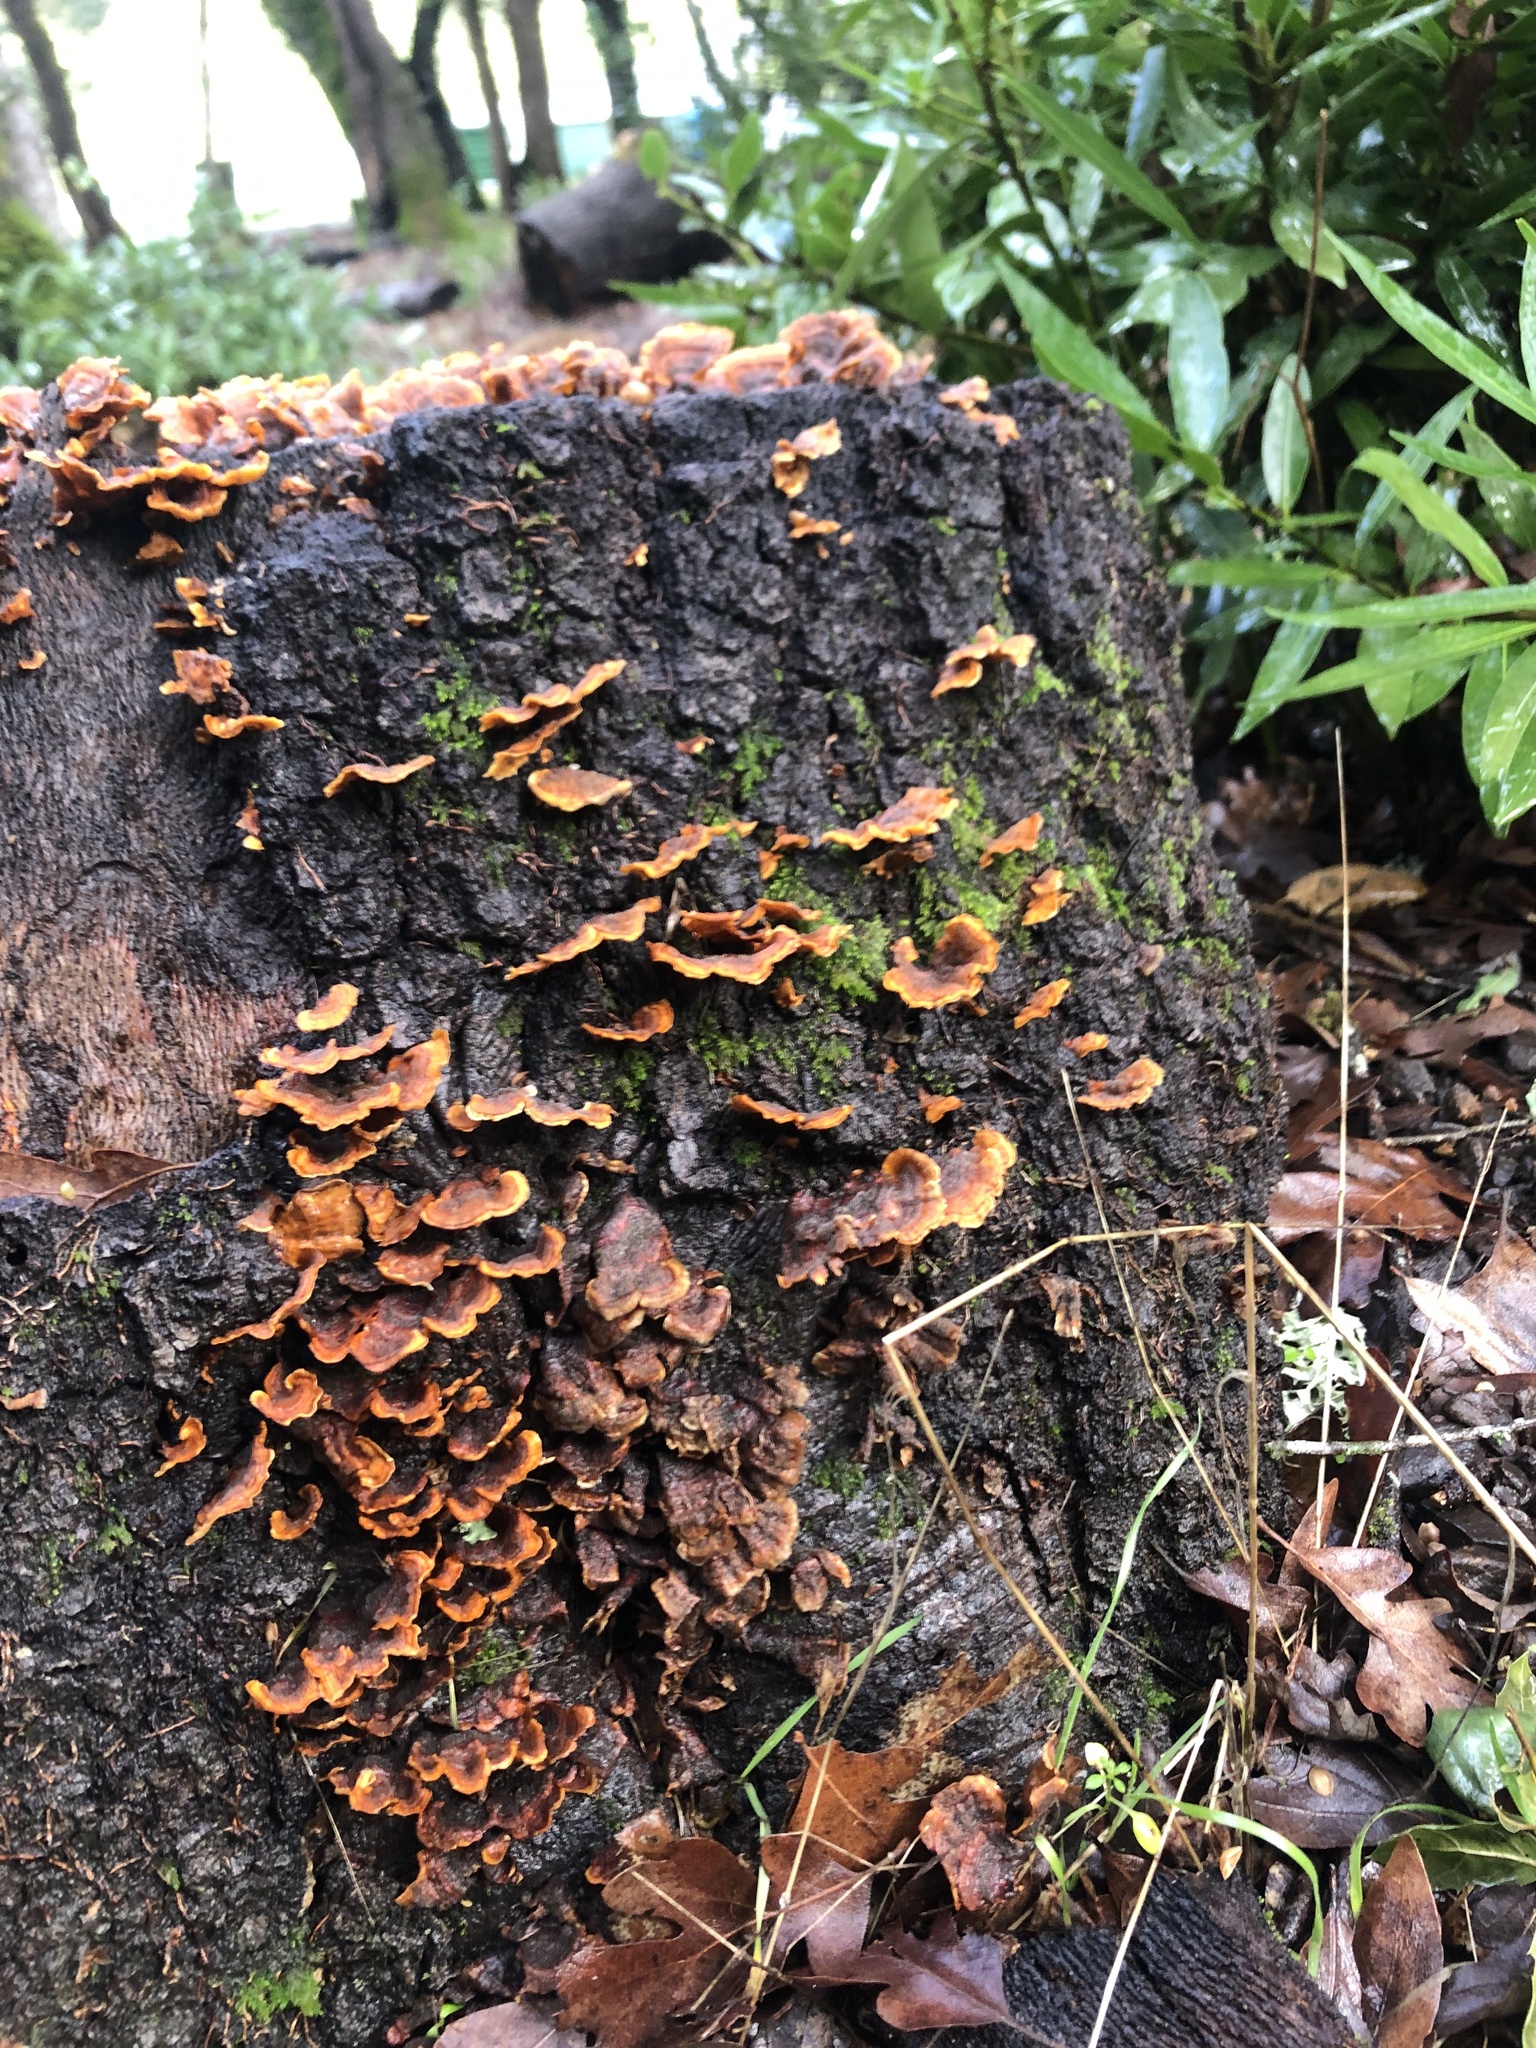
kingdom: Fungi
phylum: Basidiomycota
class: Agaricomycetes
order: Russulales
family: Stereaceae
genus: Stereum
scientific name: Stereum hirsutum
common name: Hairy curtain crust
